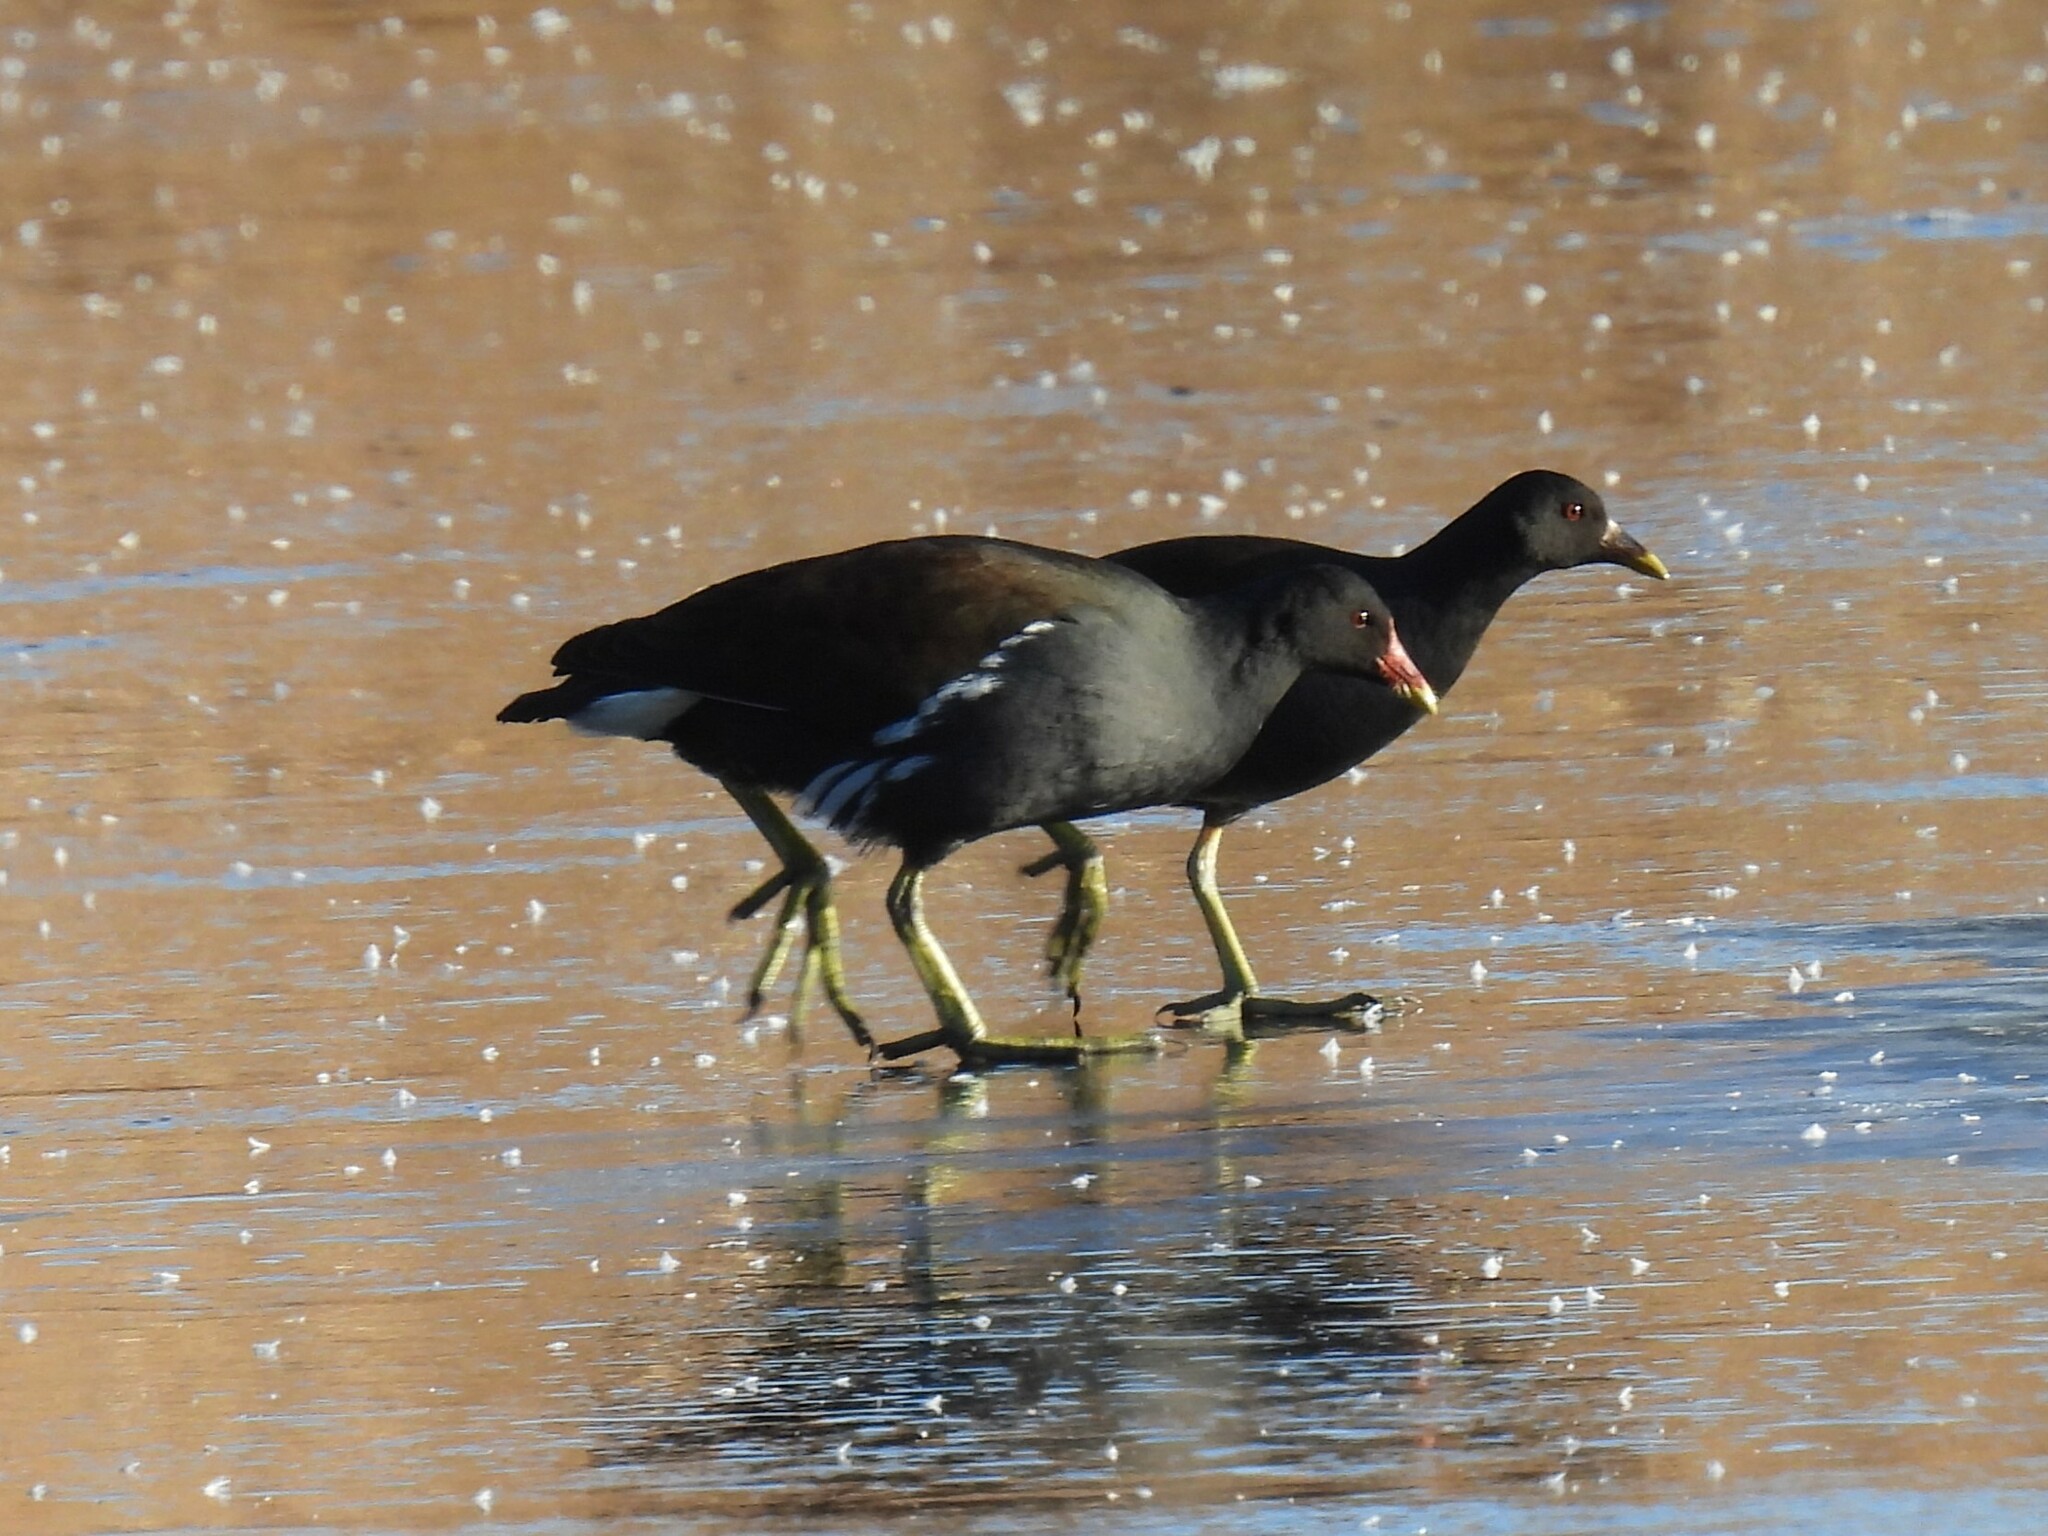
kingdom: Animalia
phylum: Chordata
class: Aves
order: Gruiformes
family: Rallidae
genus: Gallinula
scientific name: Gallinula chloropus
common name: Common moorhen
